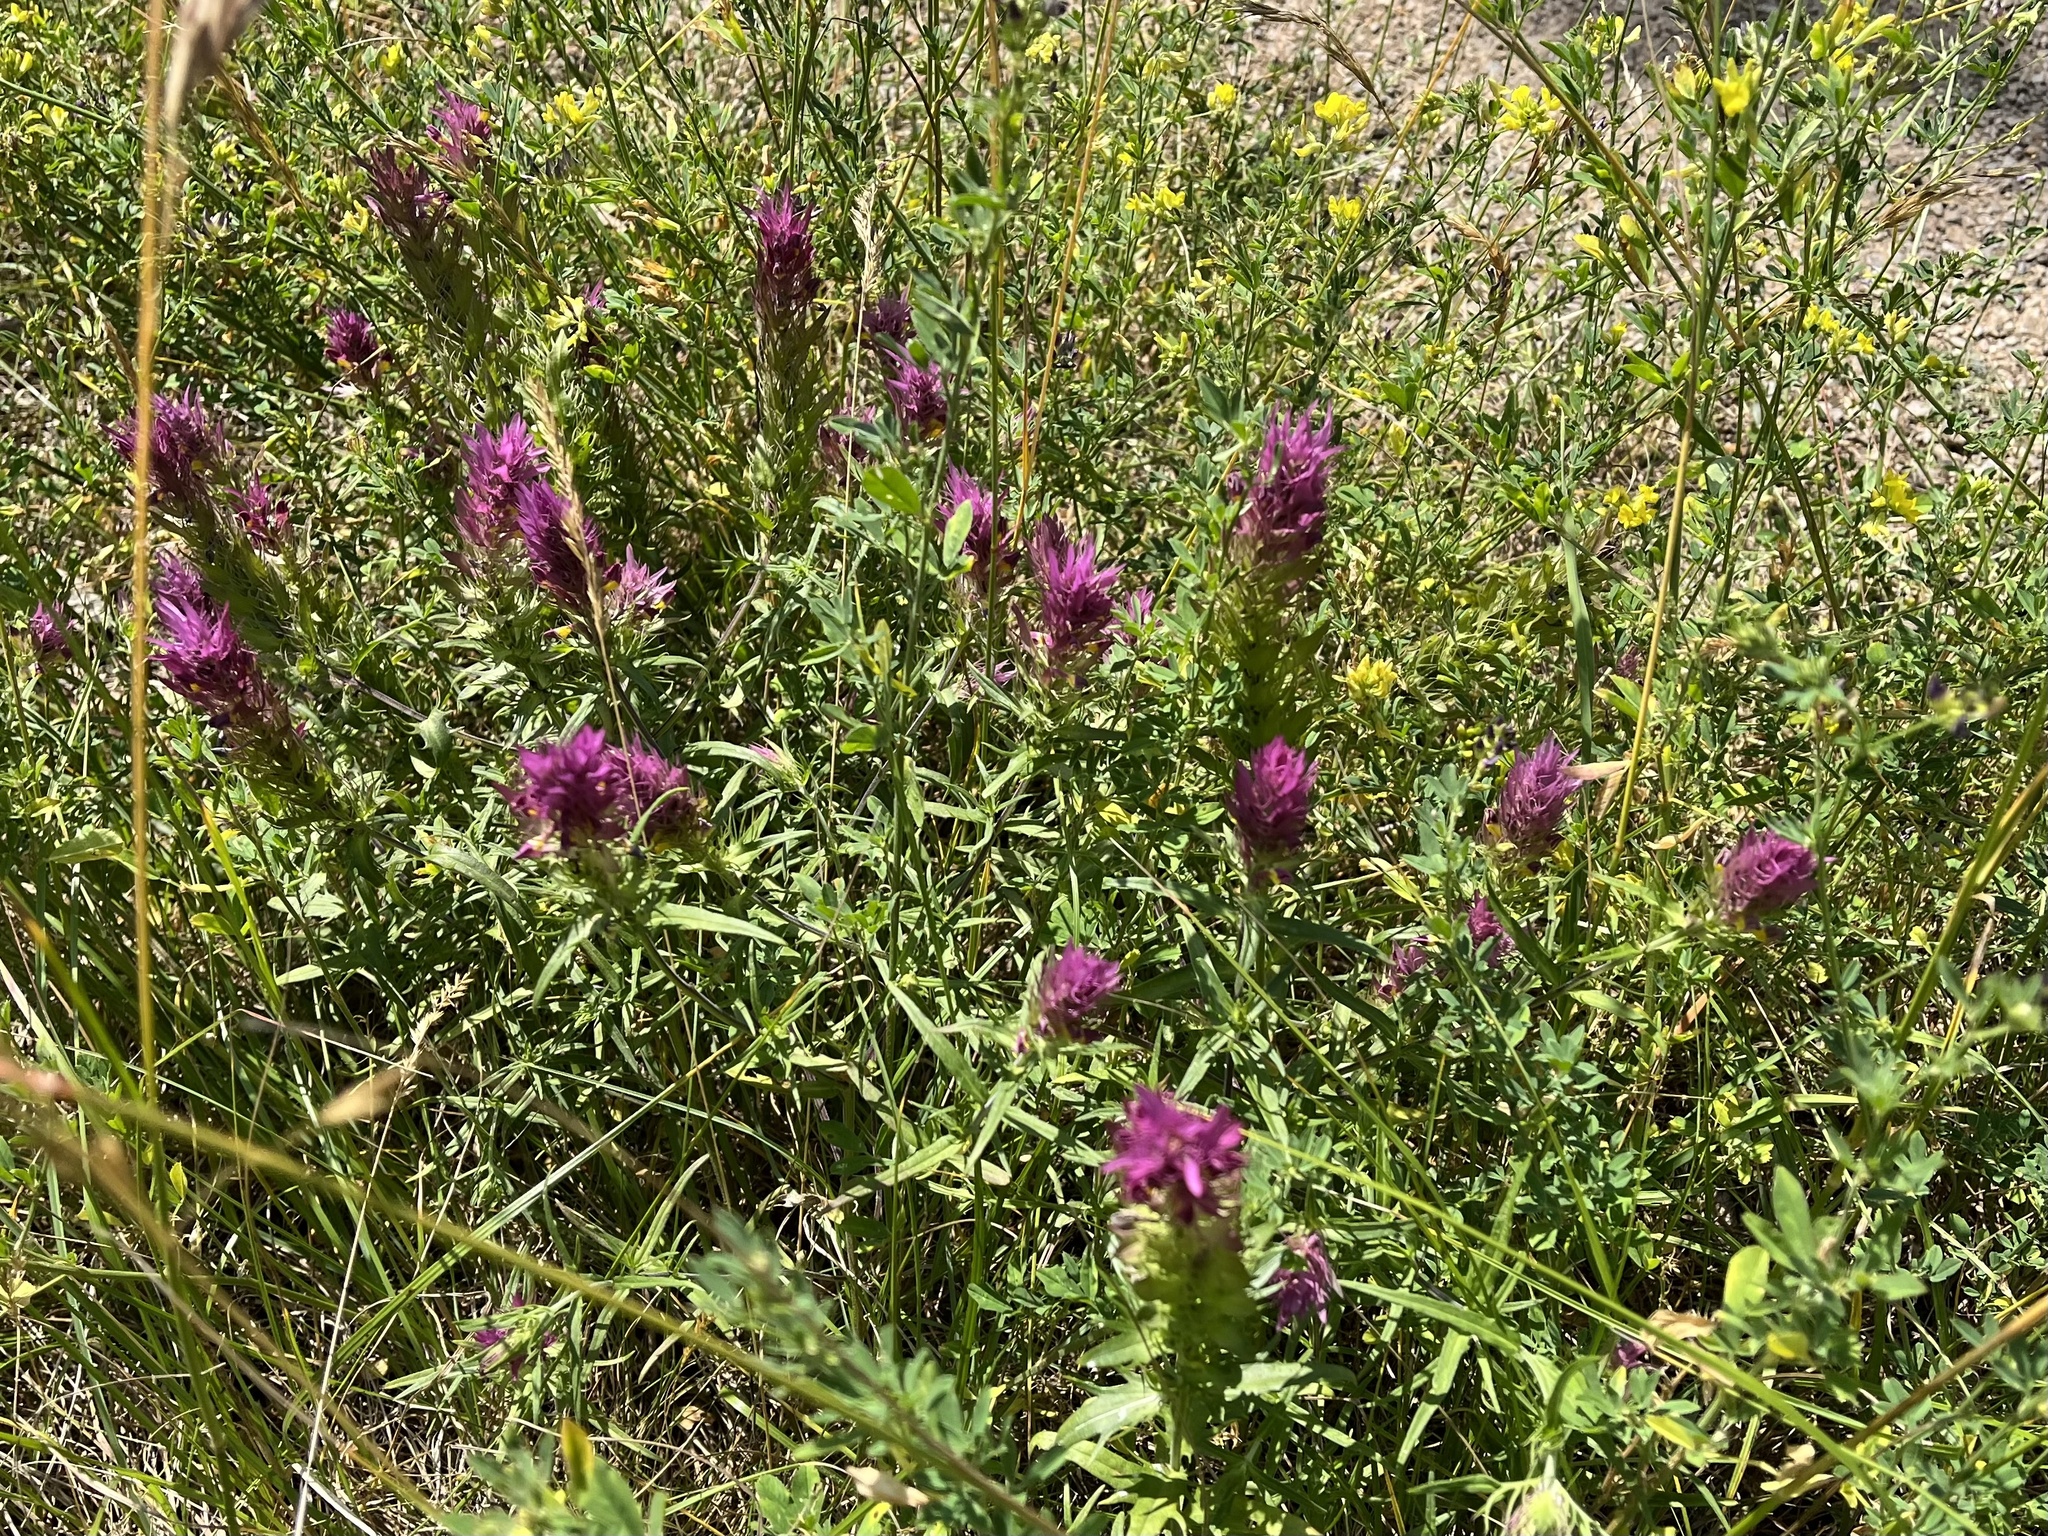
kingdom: Plantae
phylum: Tracheophyta
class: Magnoliopsida
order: Lamiales
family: Orobanchaceae
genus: Melampyrum
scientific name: Melampyrum arvense
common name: Field cow-wheat
